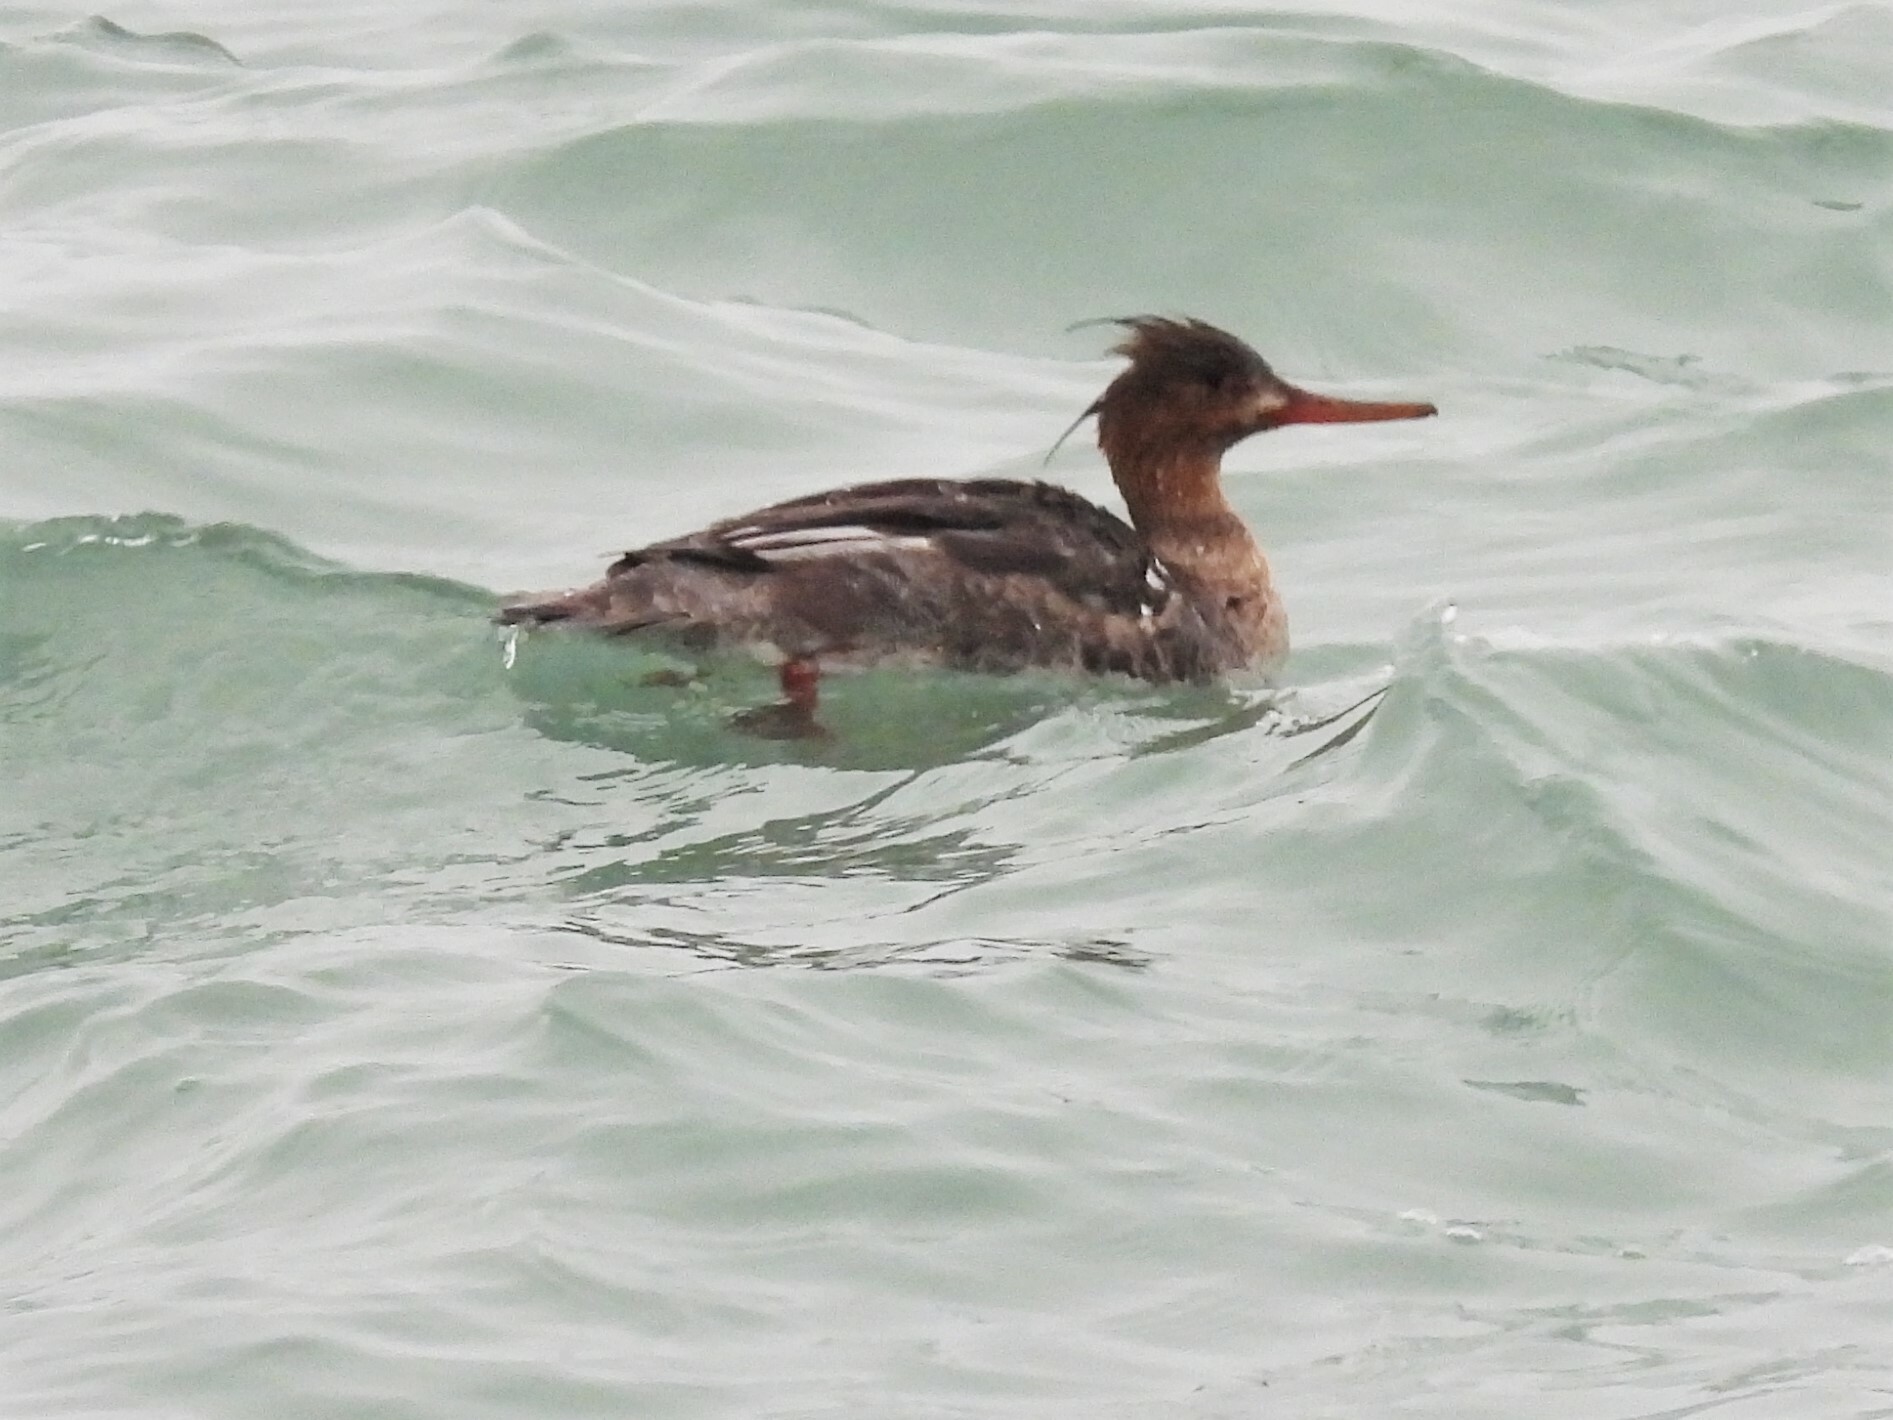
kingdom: Animalia
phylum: Chordata
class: Aves
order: Anseriformes
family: Anatidae
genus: Mergus
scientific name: Mergus serrator
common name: Red-breasted merganser
